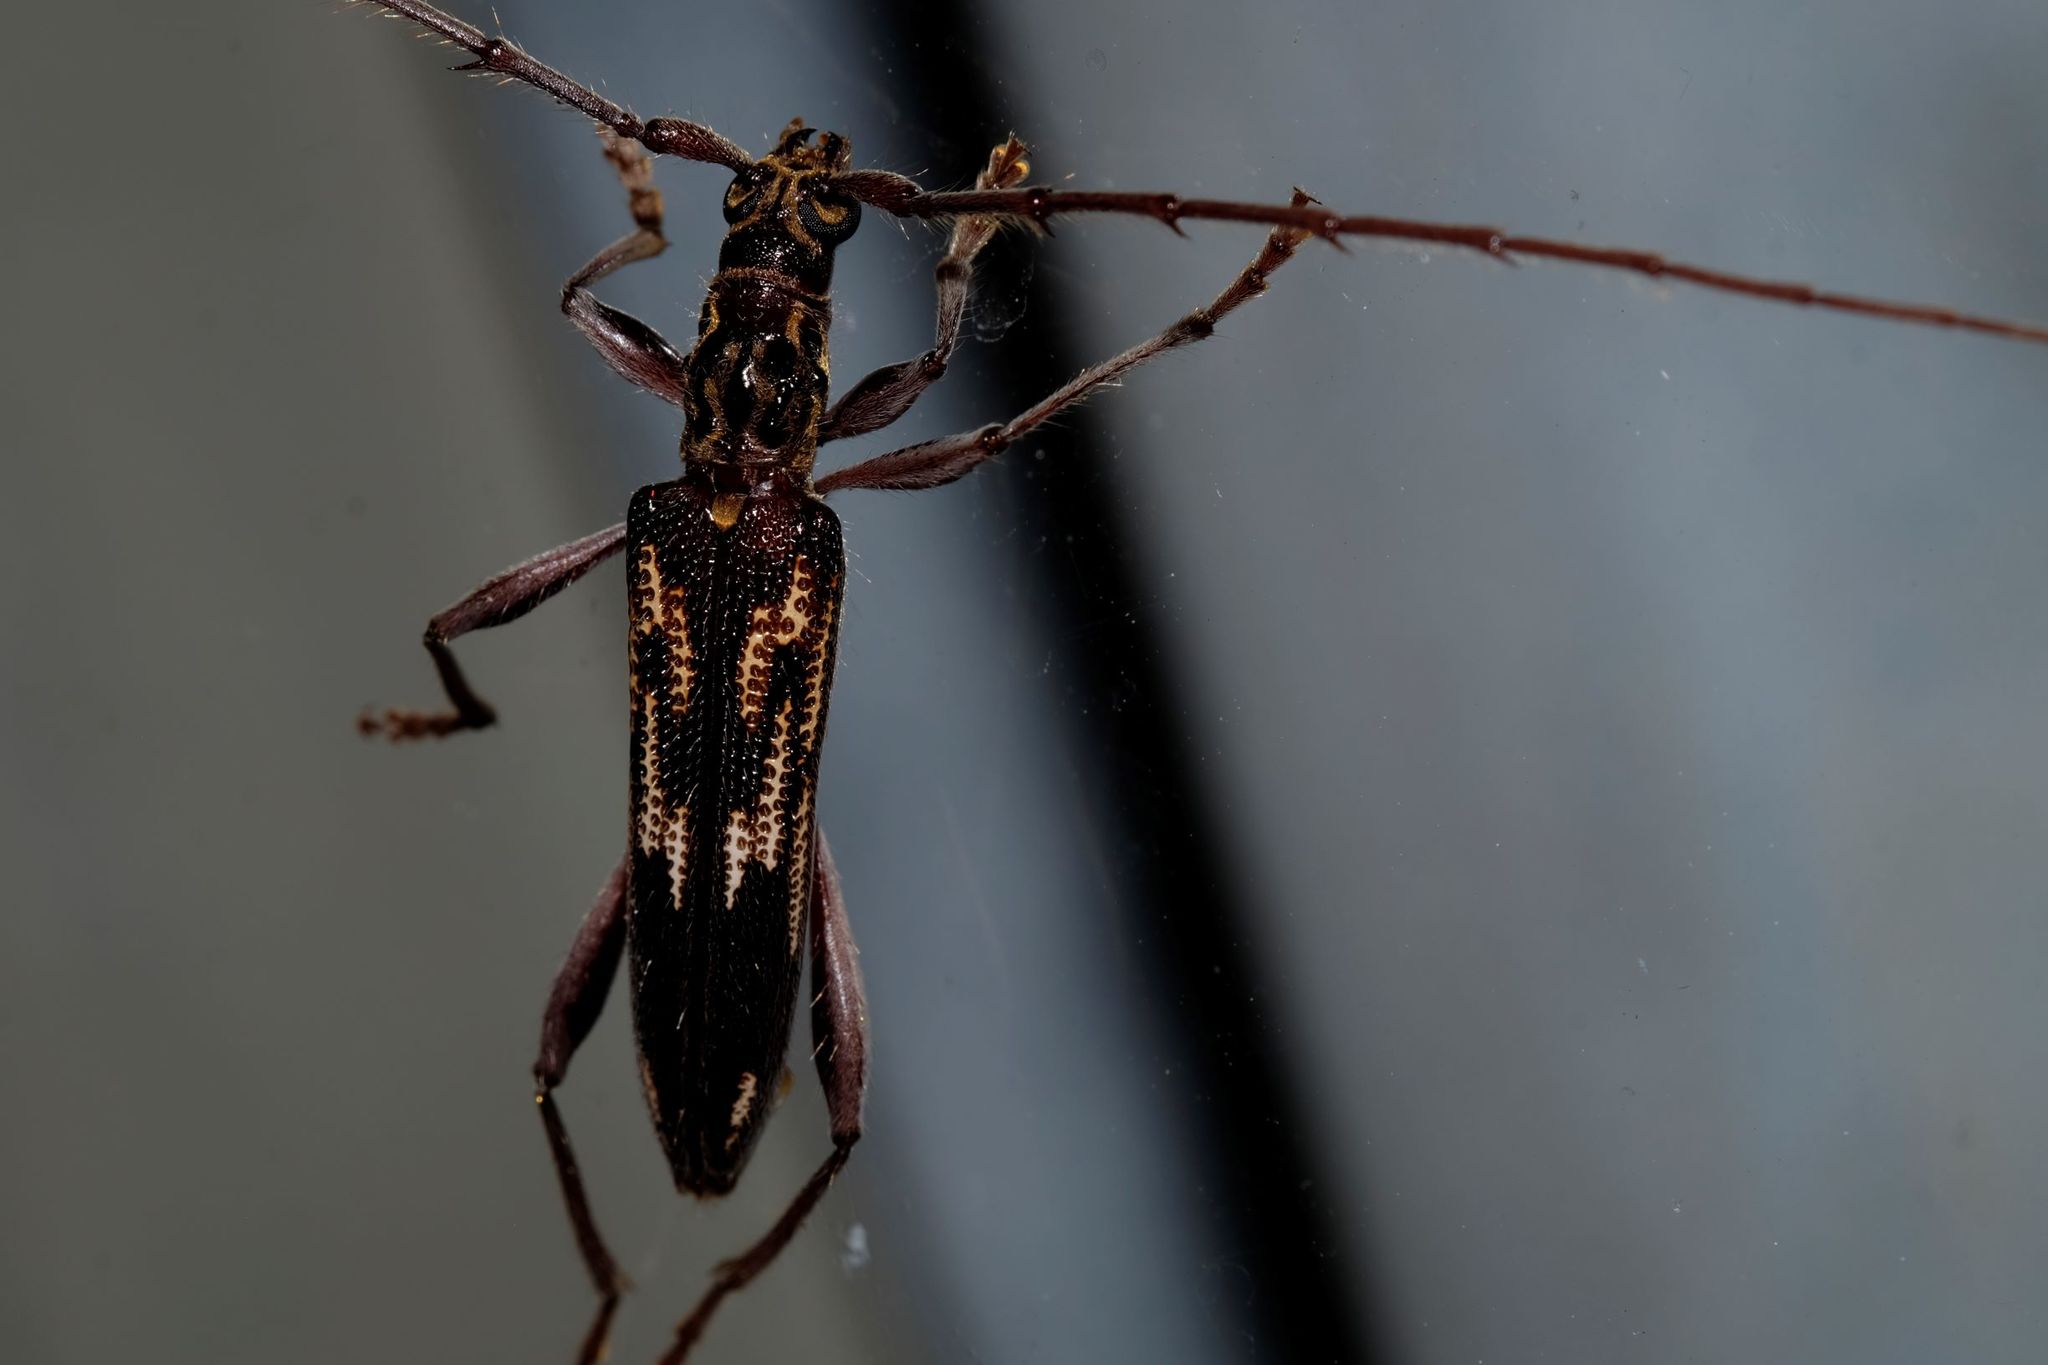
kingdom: Animalia
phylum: Arthropoda
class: Insecta
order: Coleoptera
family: Cerambycidae
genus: Coptocercus
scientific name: Coptocercus rubripes
